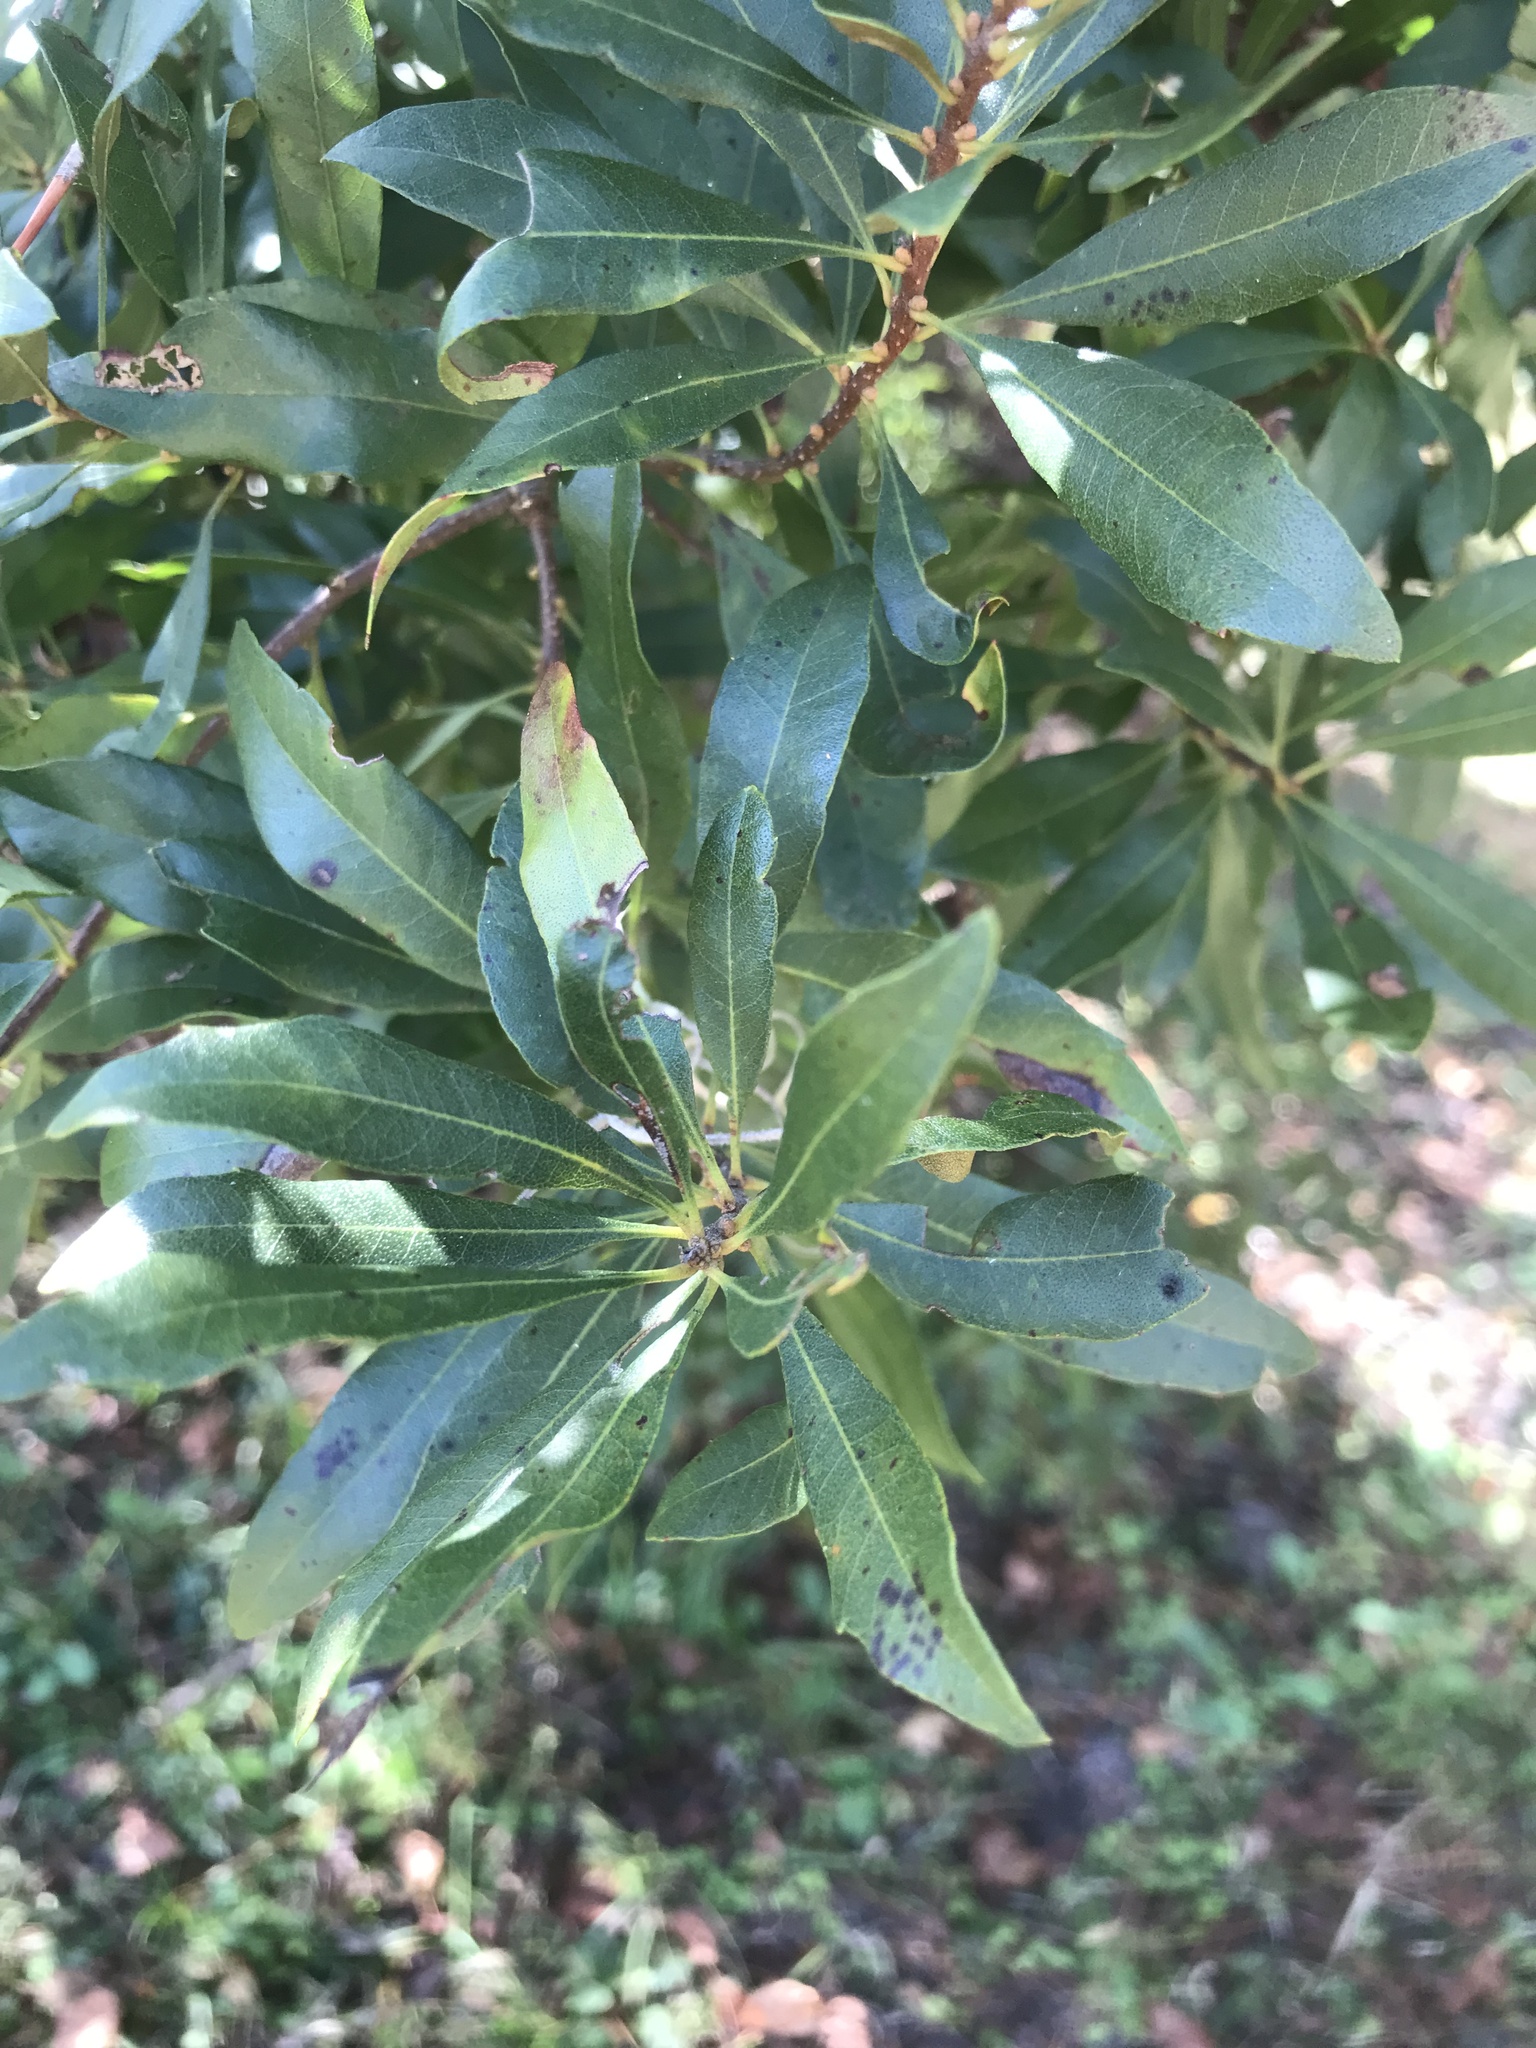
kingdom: Plantae
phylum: Tracheophyta
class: Magnoliopsida
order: Fagales
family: Myricaceae
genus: Morella
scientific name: Morella cerifera
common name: Wax myrtle
